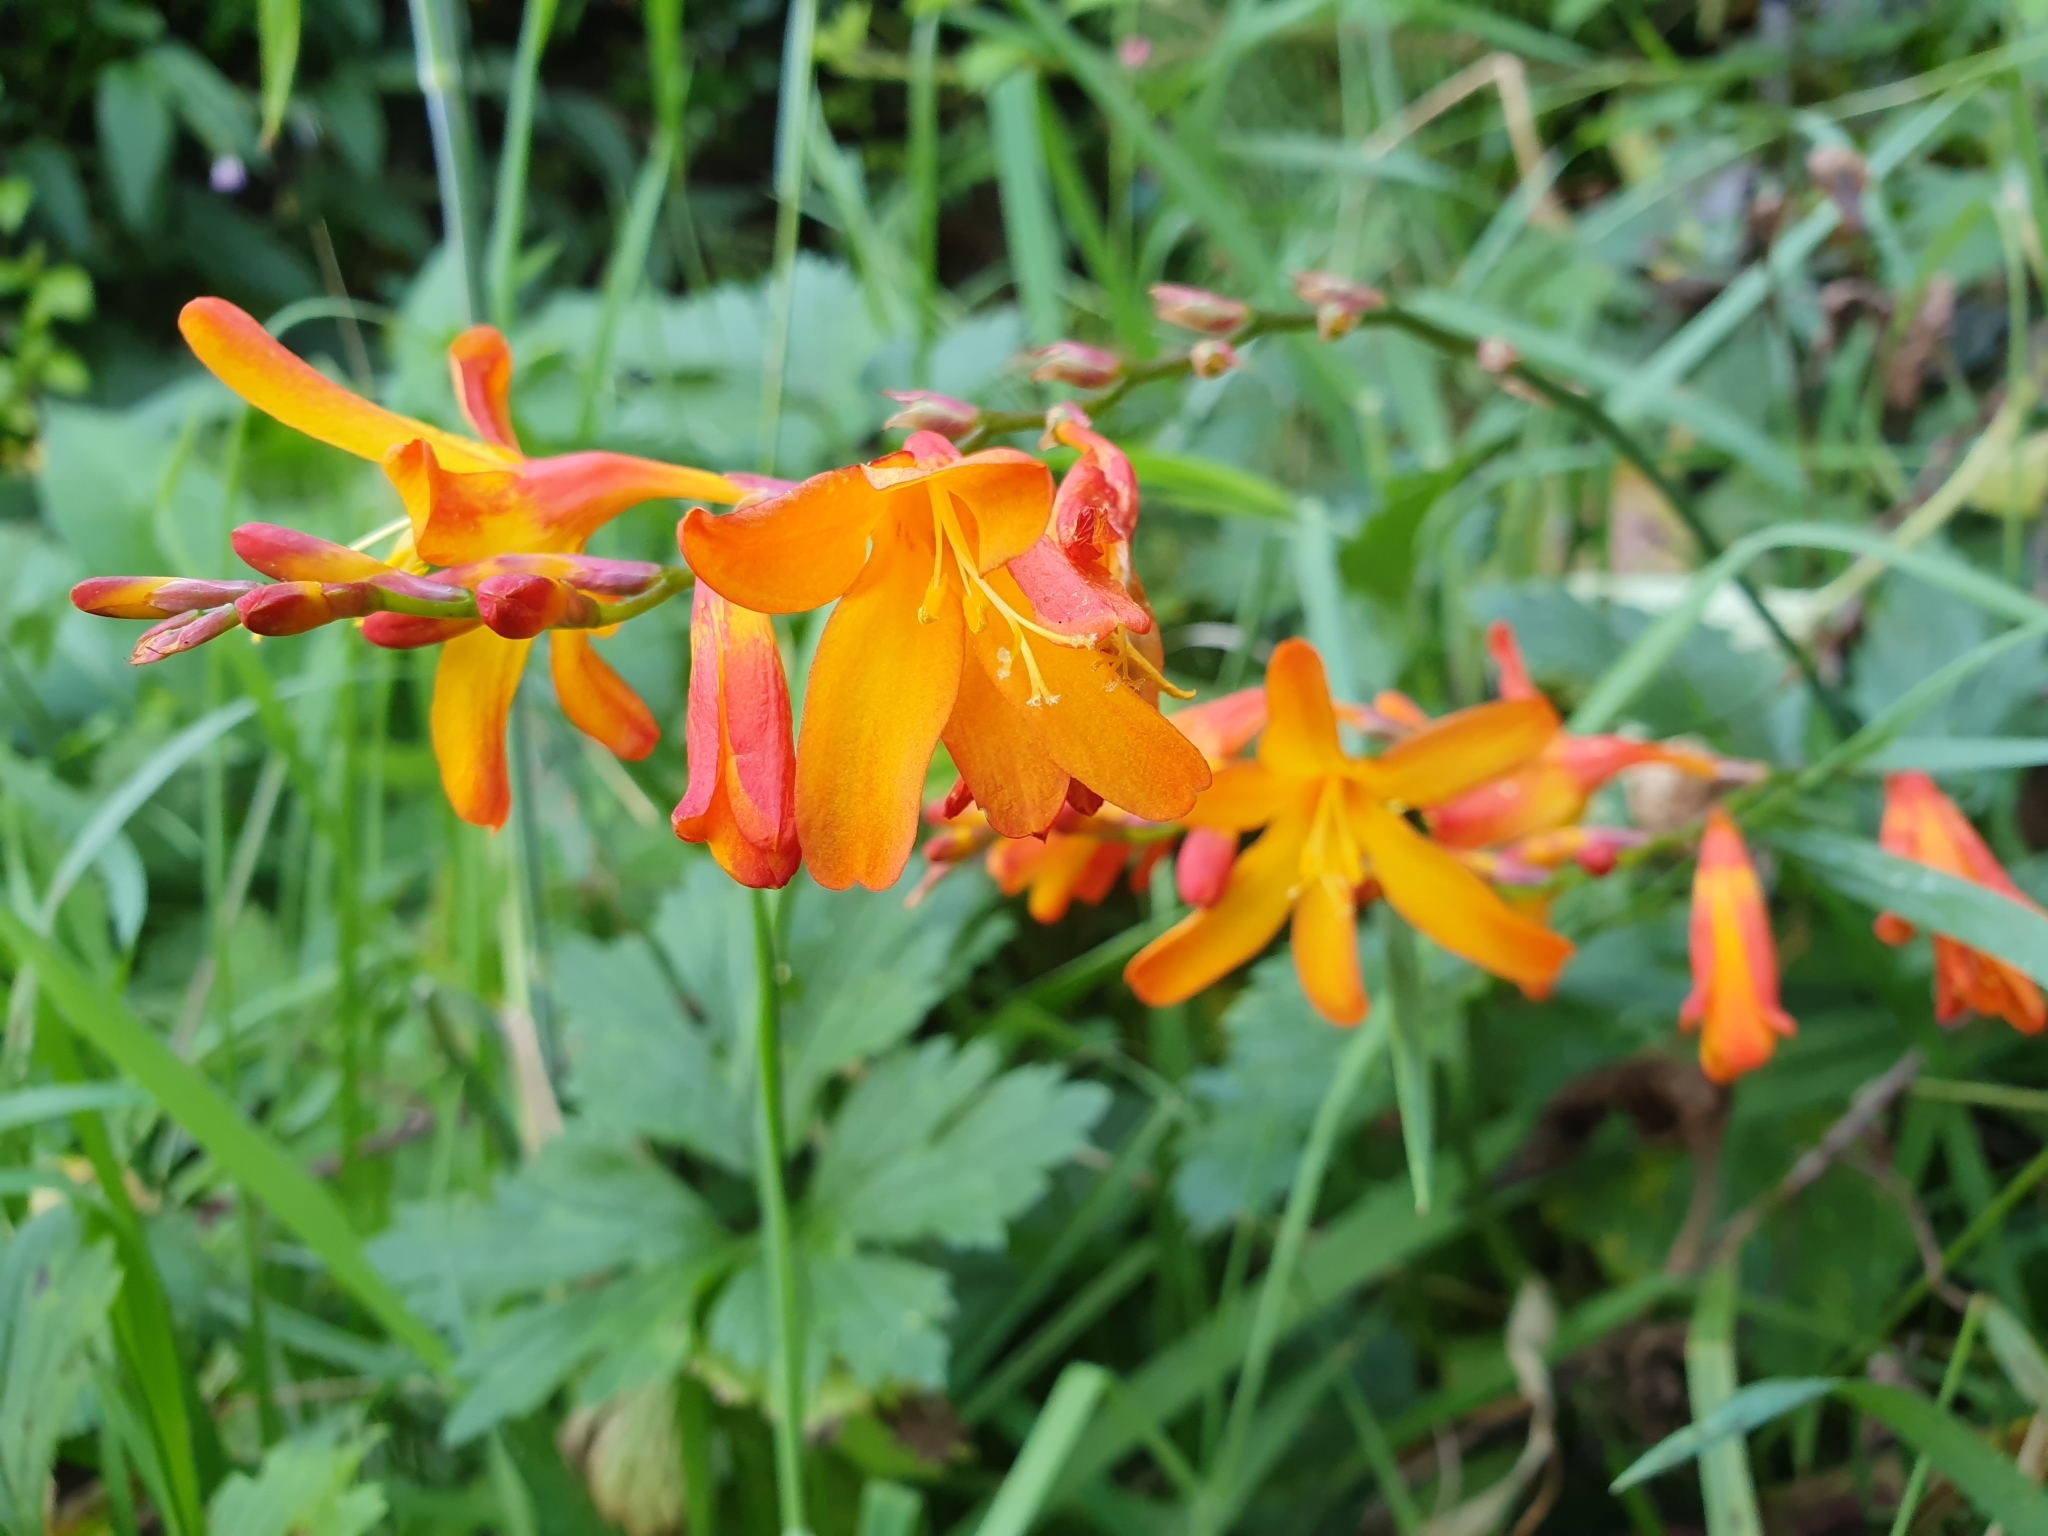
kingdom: Plantae
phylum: Tracheophyta
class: Liliopsida
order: Asparagales
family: Iridaceae
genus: Crocosmia
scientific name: Crocosmia crocosmiiflora
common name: Montbretia
